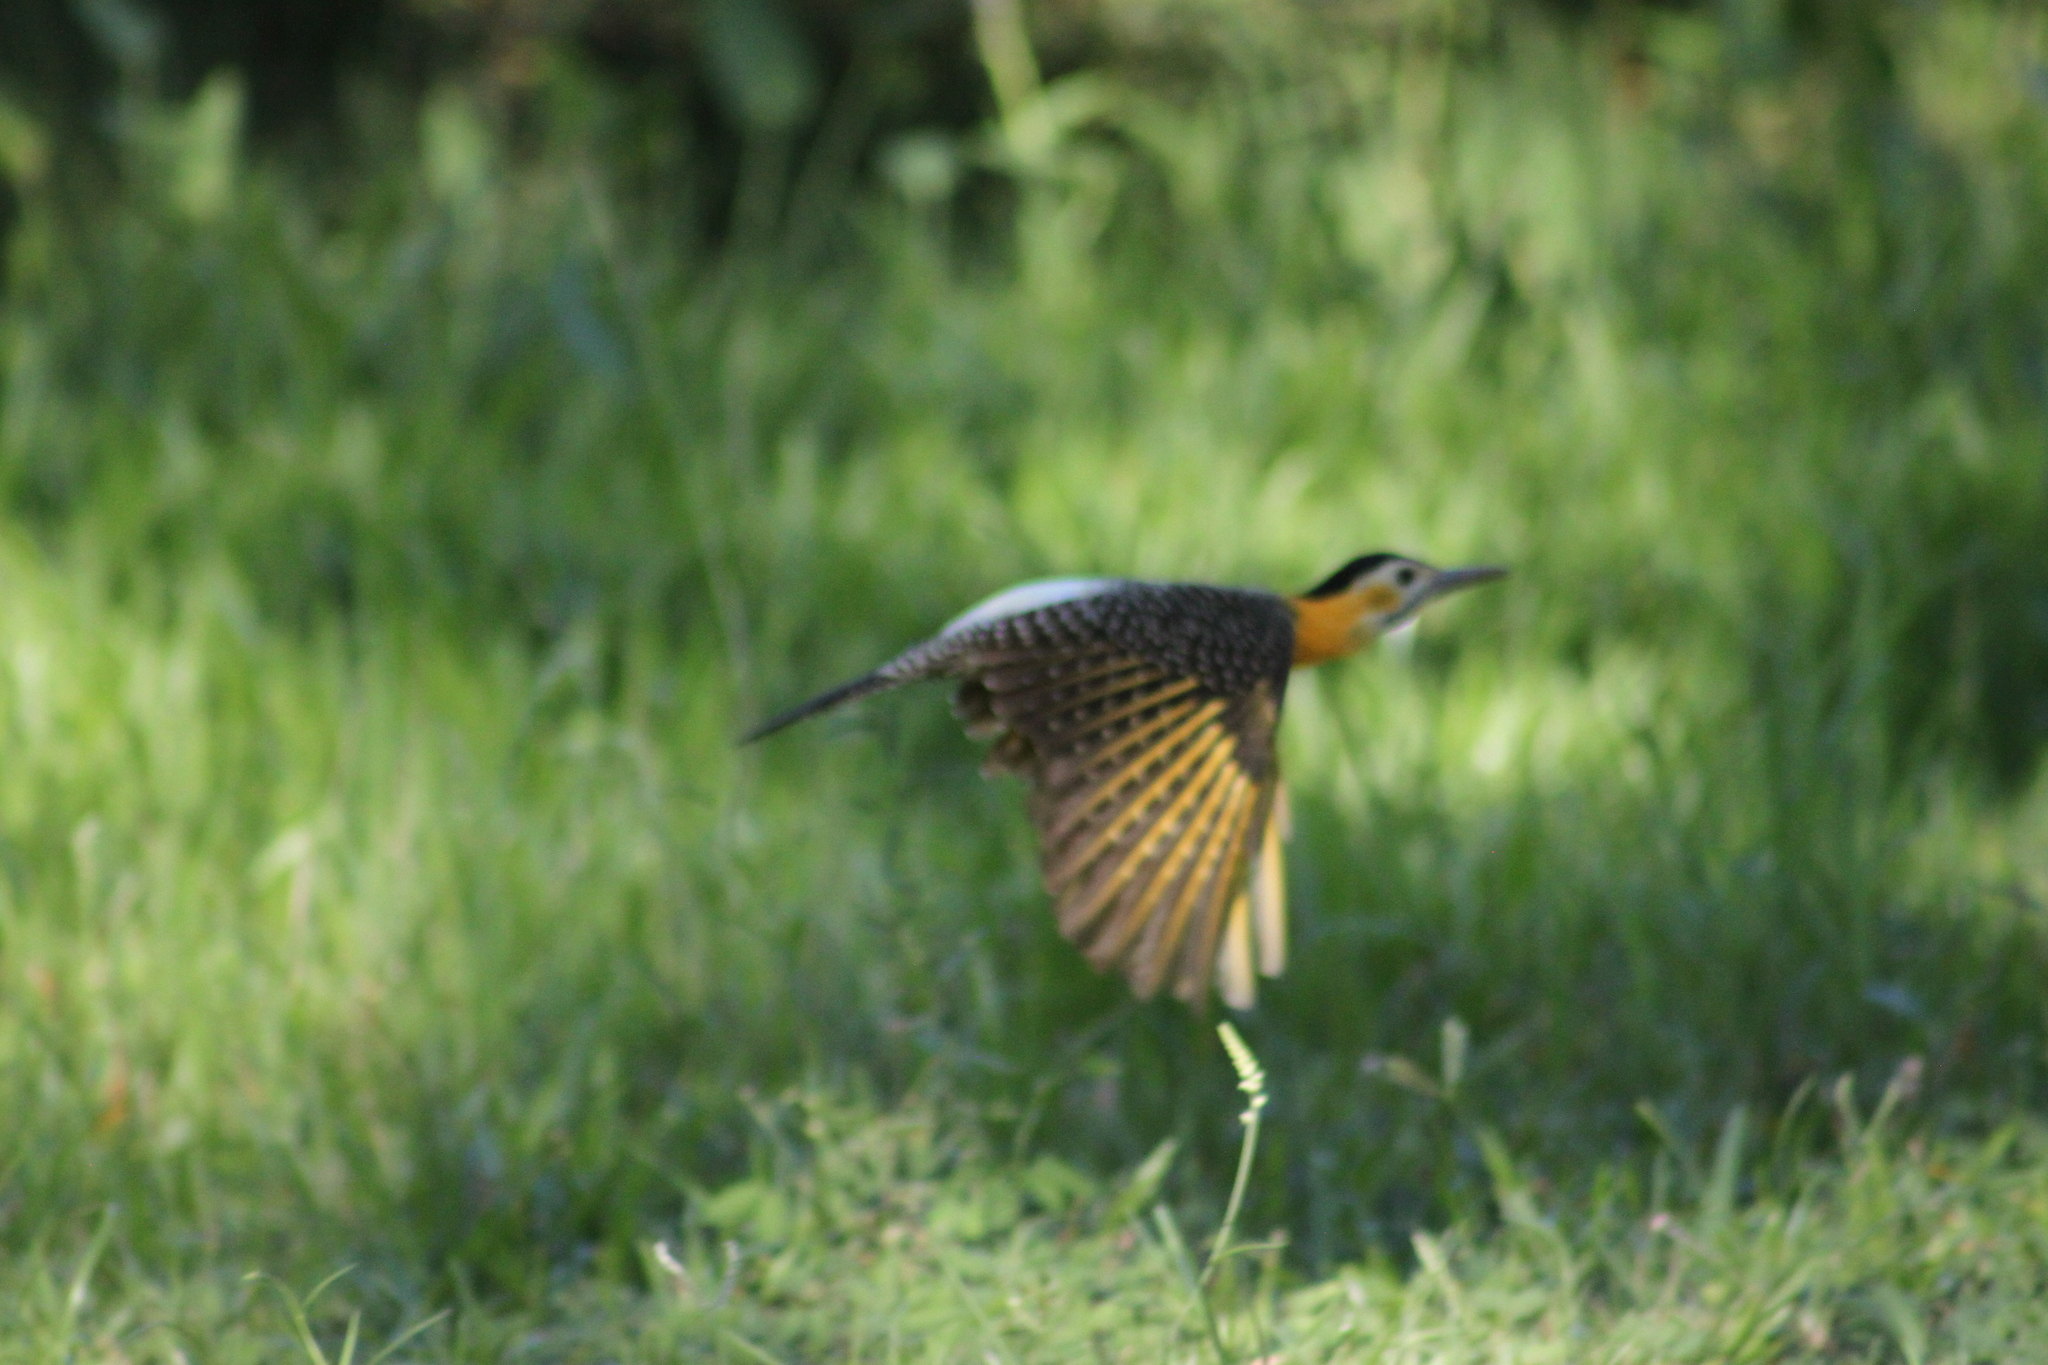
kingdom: Animalia
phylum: Chordata
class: Aves
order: Piciformes
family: Picidae
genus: Colaptes
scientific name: Colaptes campestris
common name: Campo flicker
